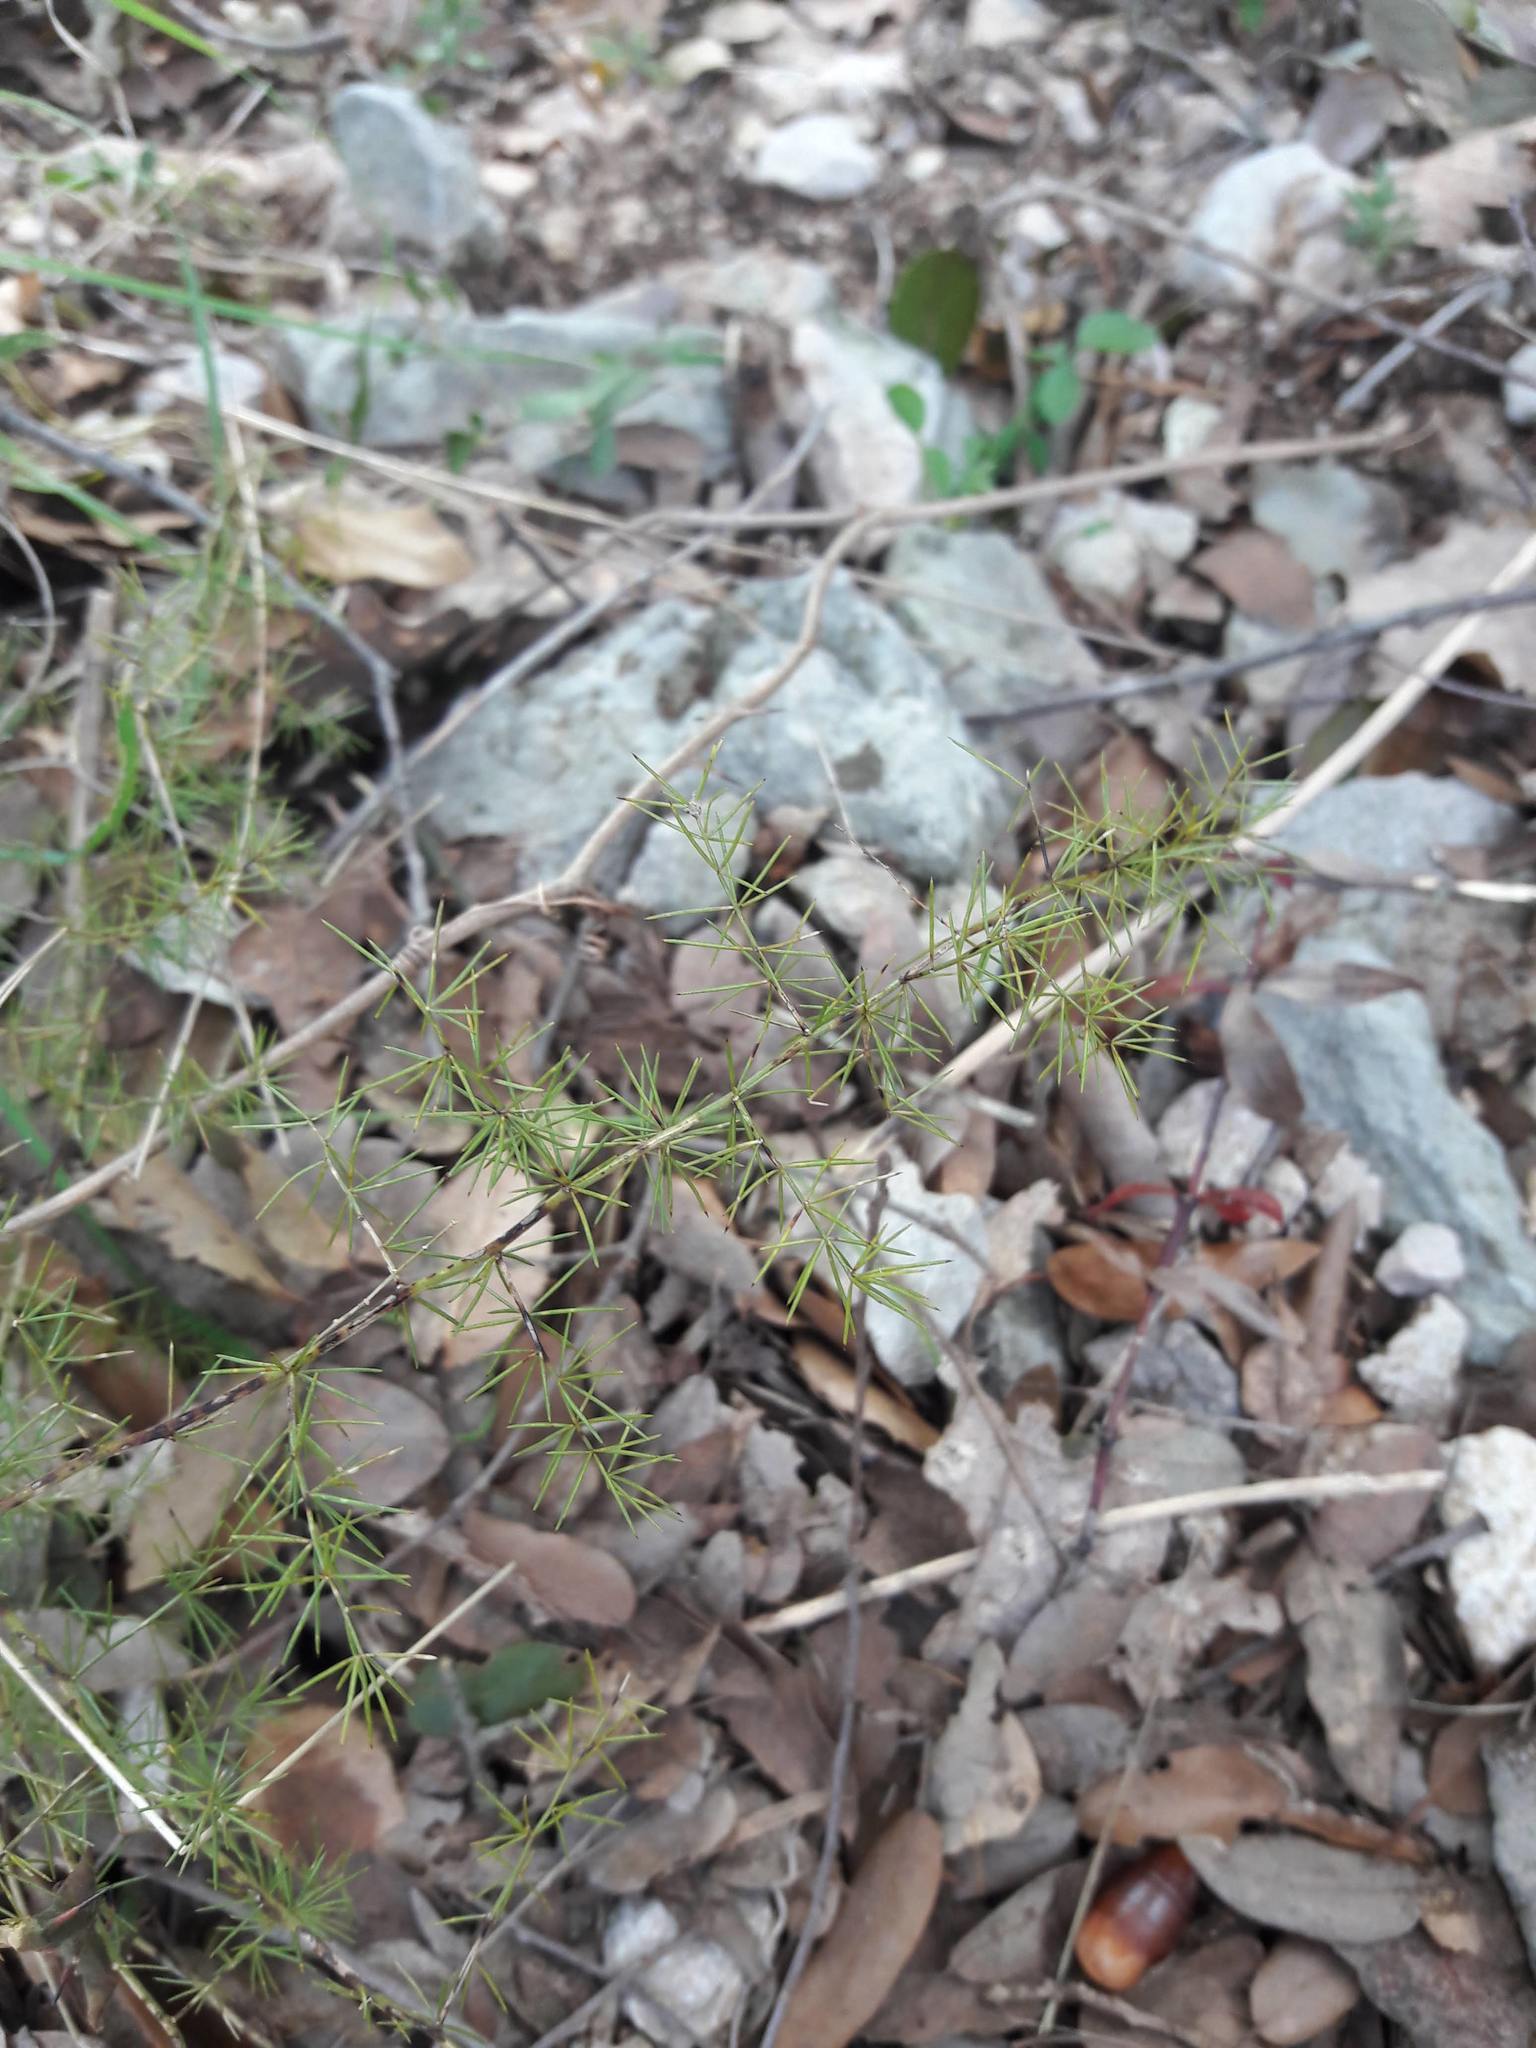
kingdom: Plantae
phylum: Tracheophyta
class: Liliopsida
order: Asparagales
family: Asparagaceae
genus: Asparagus
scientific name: Asparagus acutifolius
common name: Wild asparagus
